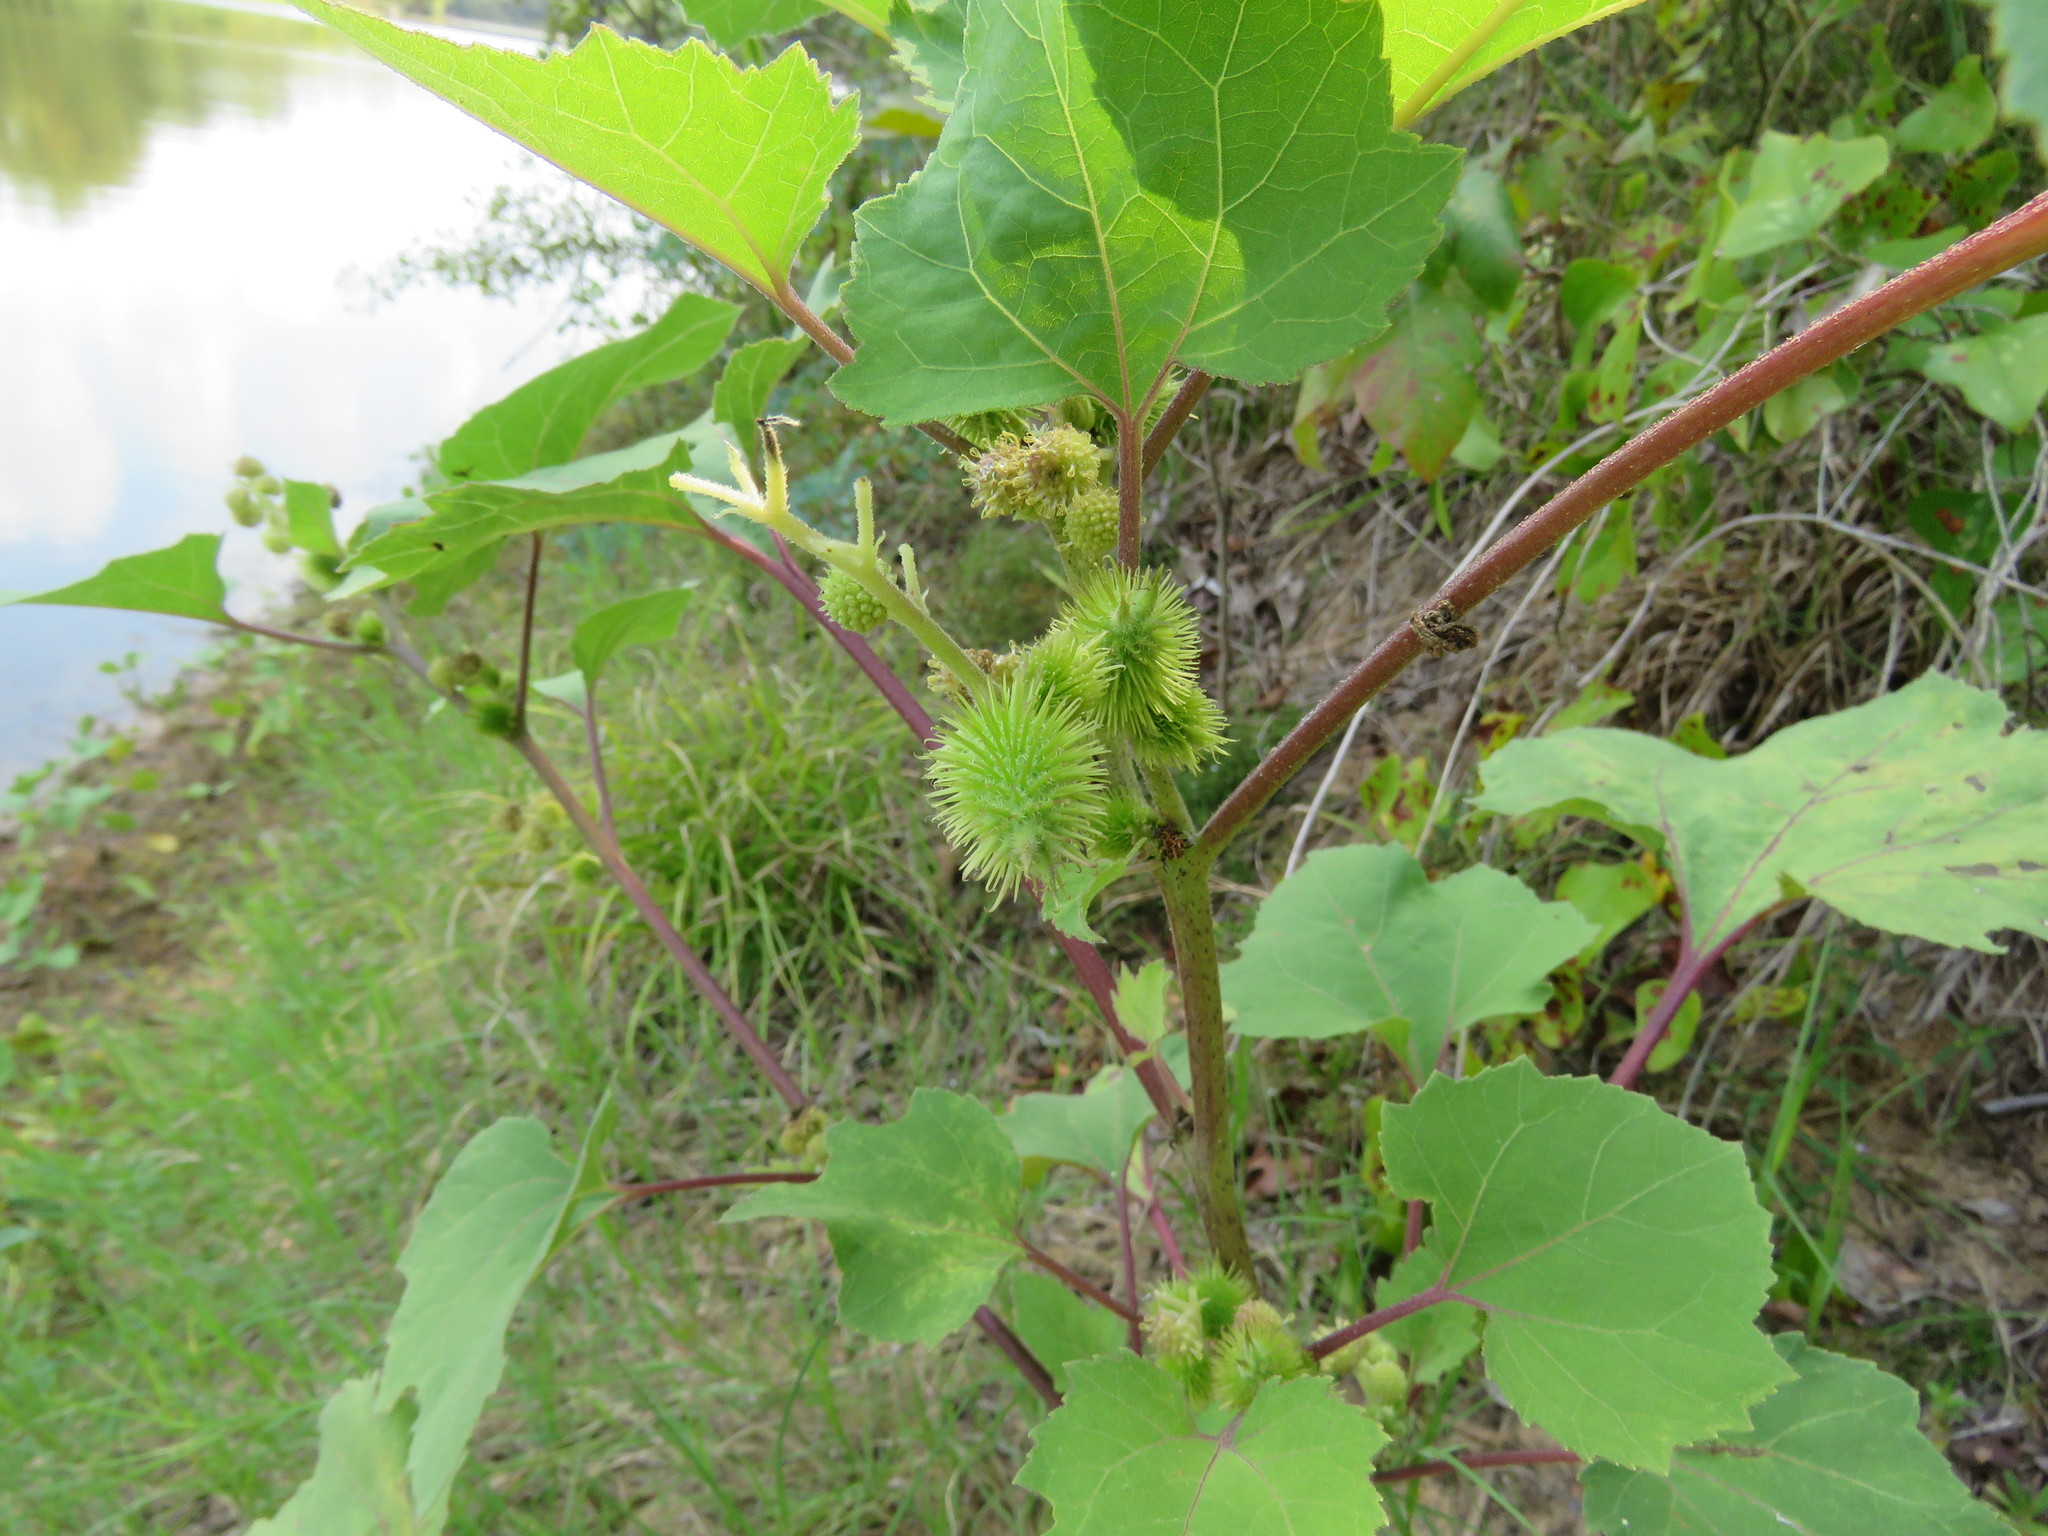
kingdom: Plantae
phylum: Tracheophyta
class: Magnoliopsida
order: Asterales
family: Asteraceae
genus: Xanthium
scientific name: Xanthium strumarium
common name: Rough cocklebur
